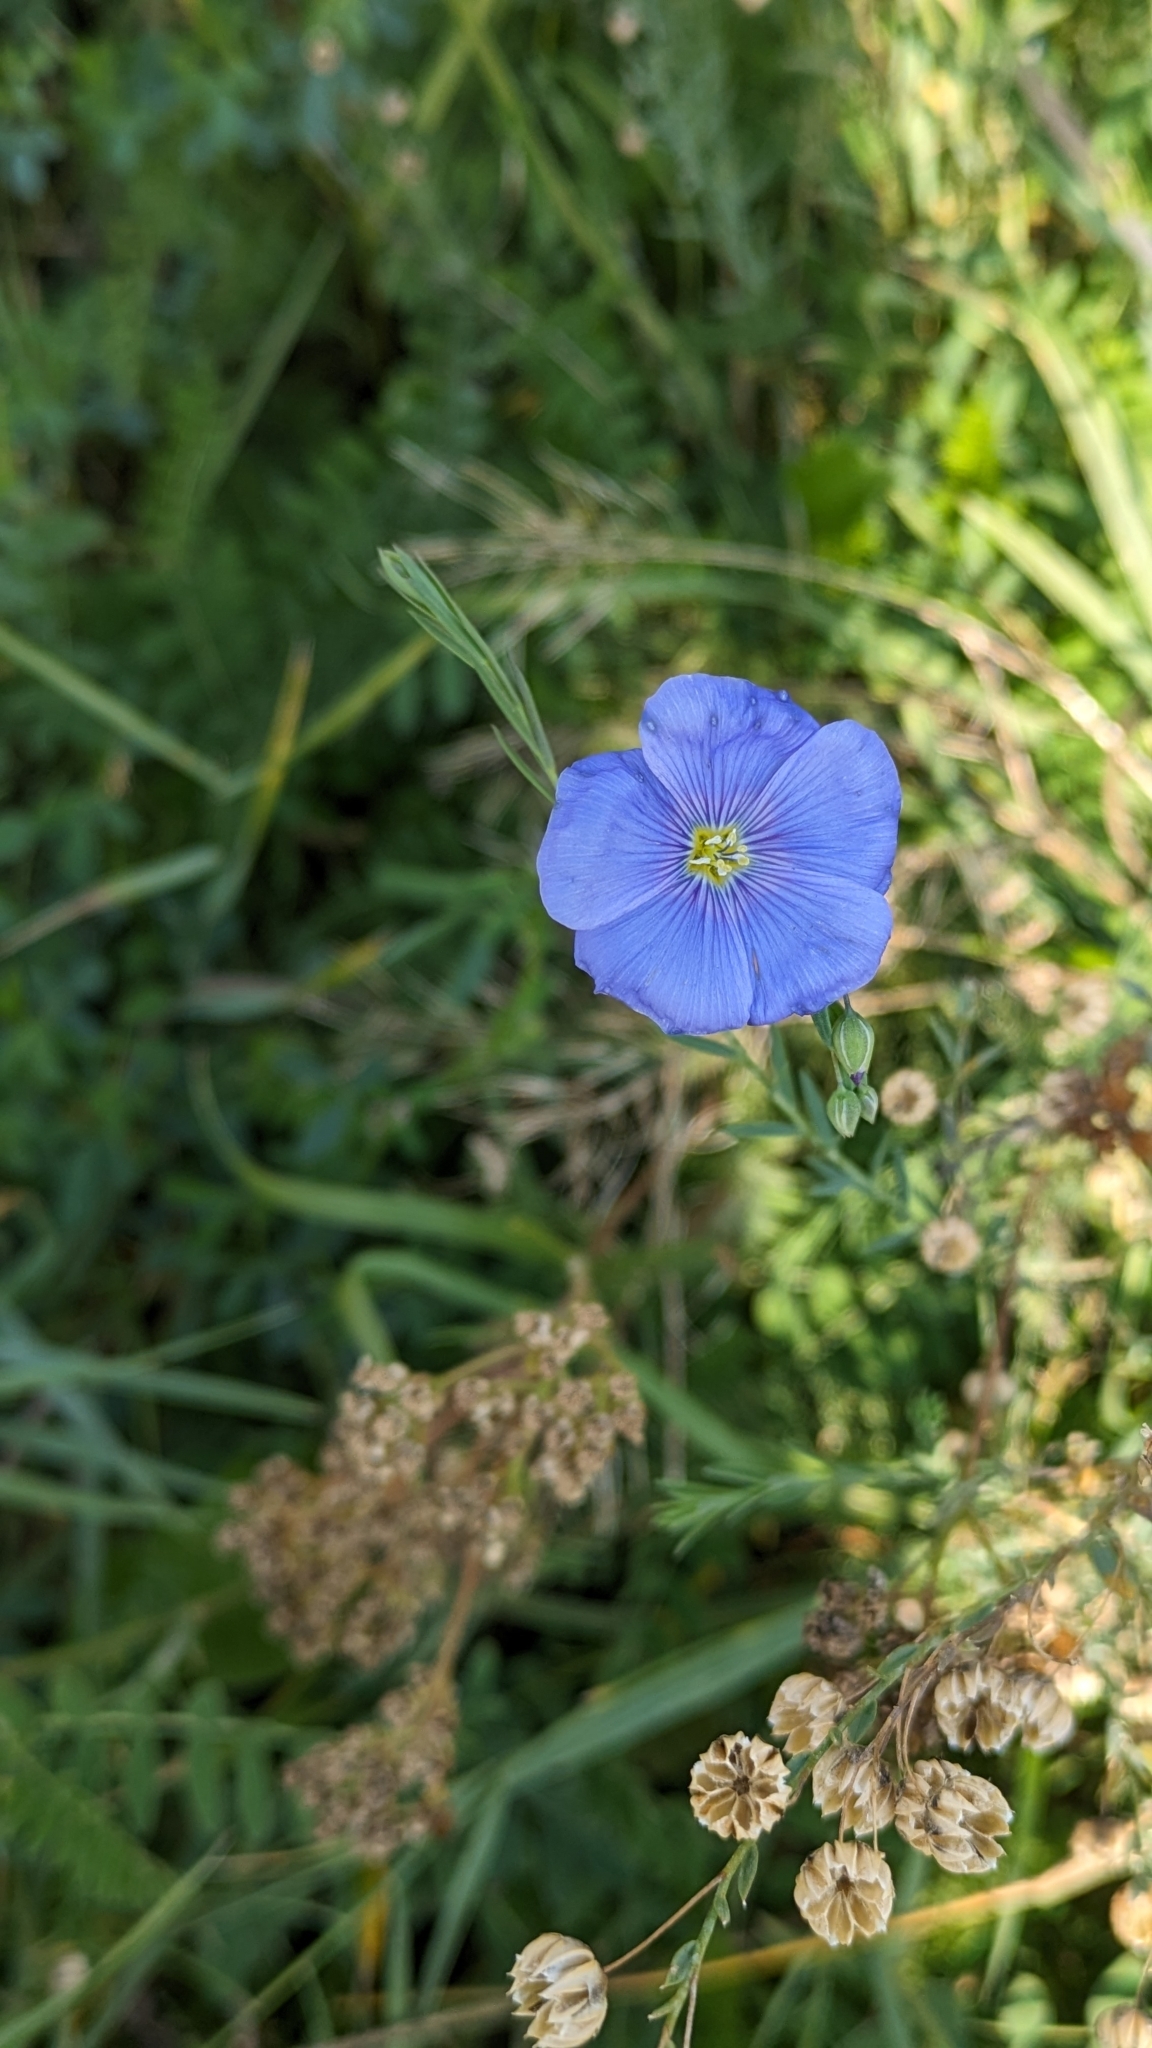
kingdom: Plantae
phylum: Tracheophyta
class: Magnoliopsida
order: Malpighiales
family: Linaceae
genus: Linum
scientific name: Linum lewisii
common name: Prairie flax
